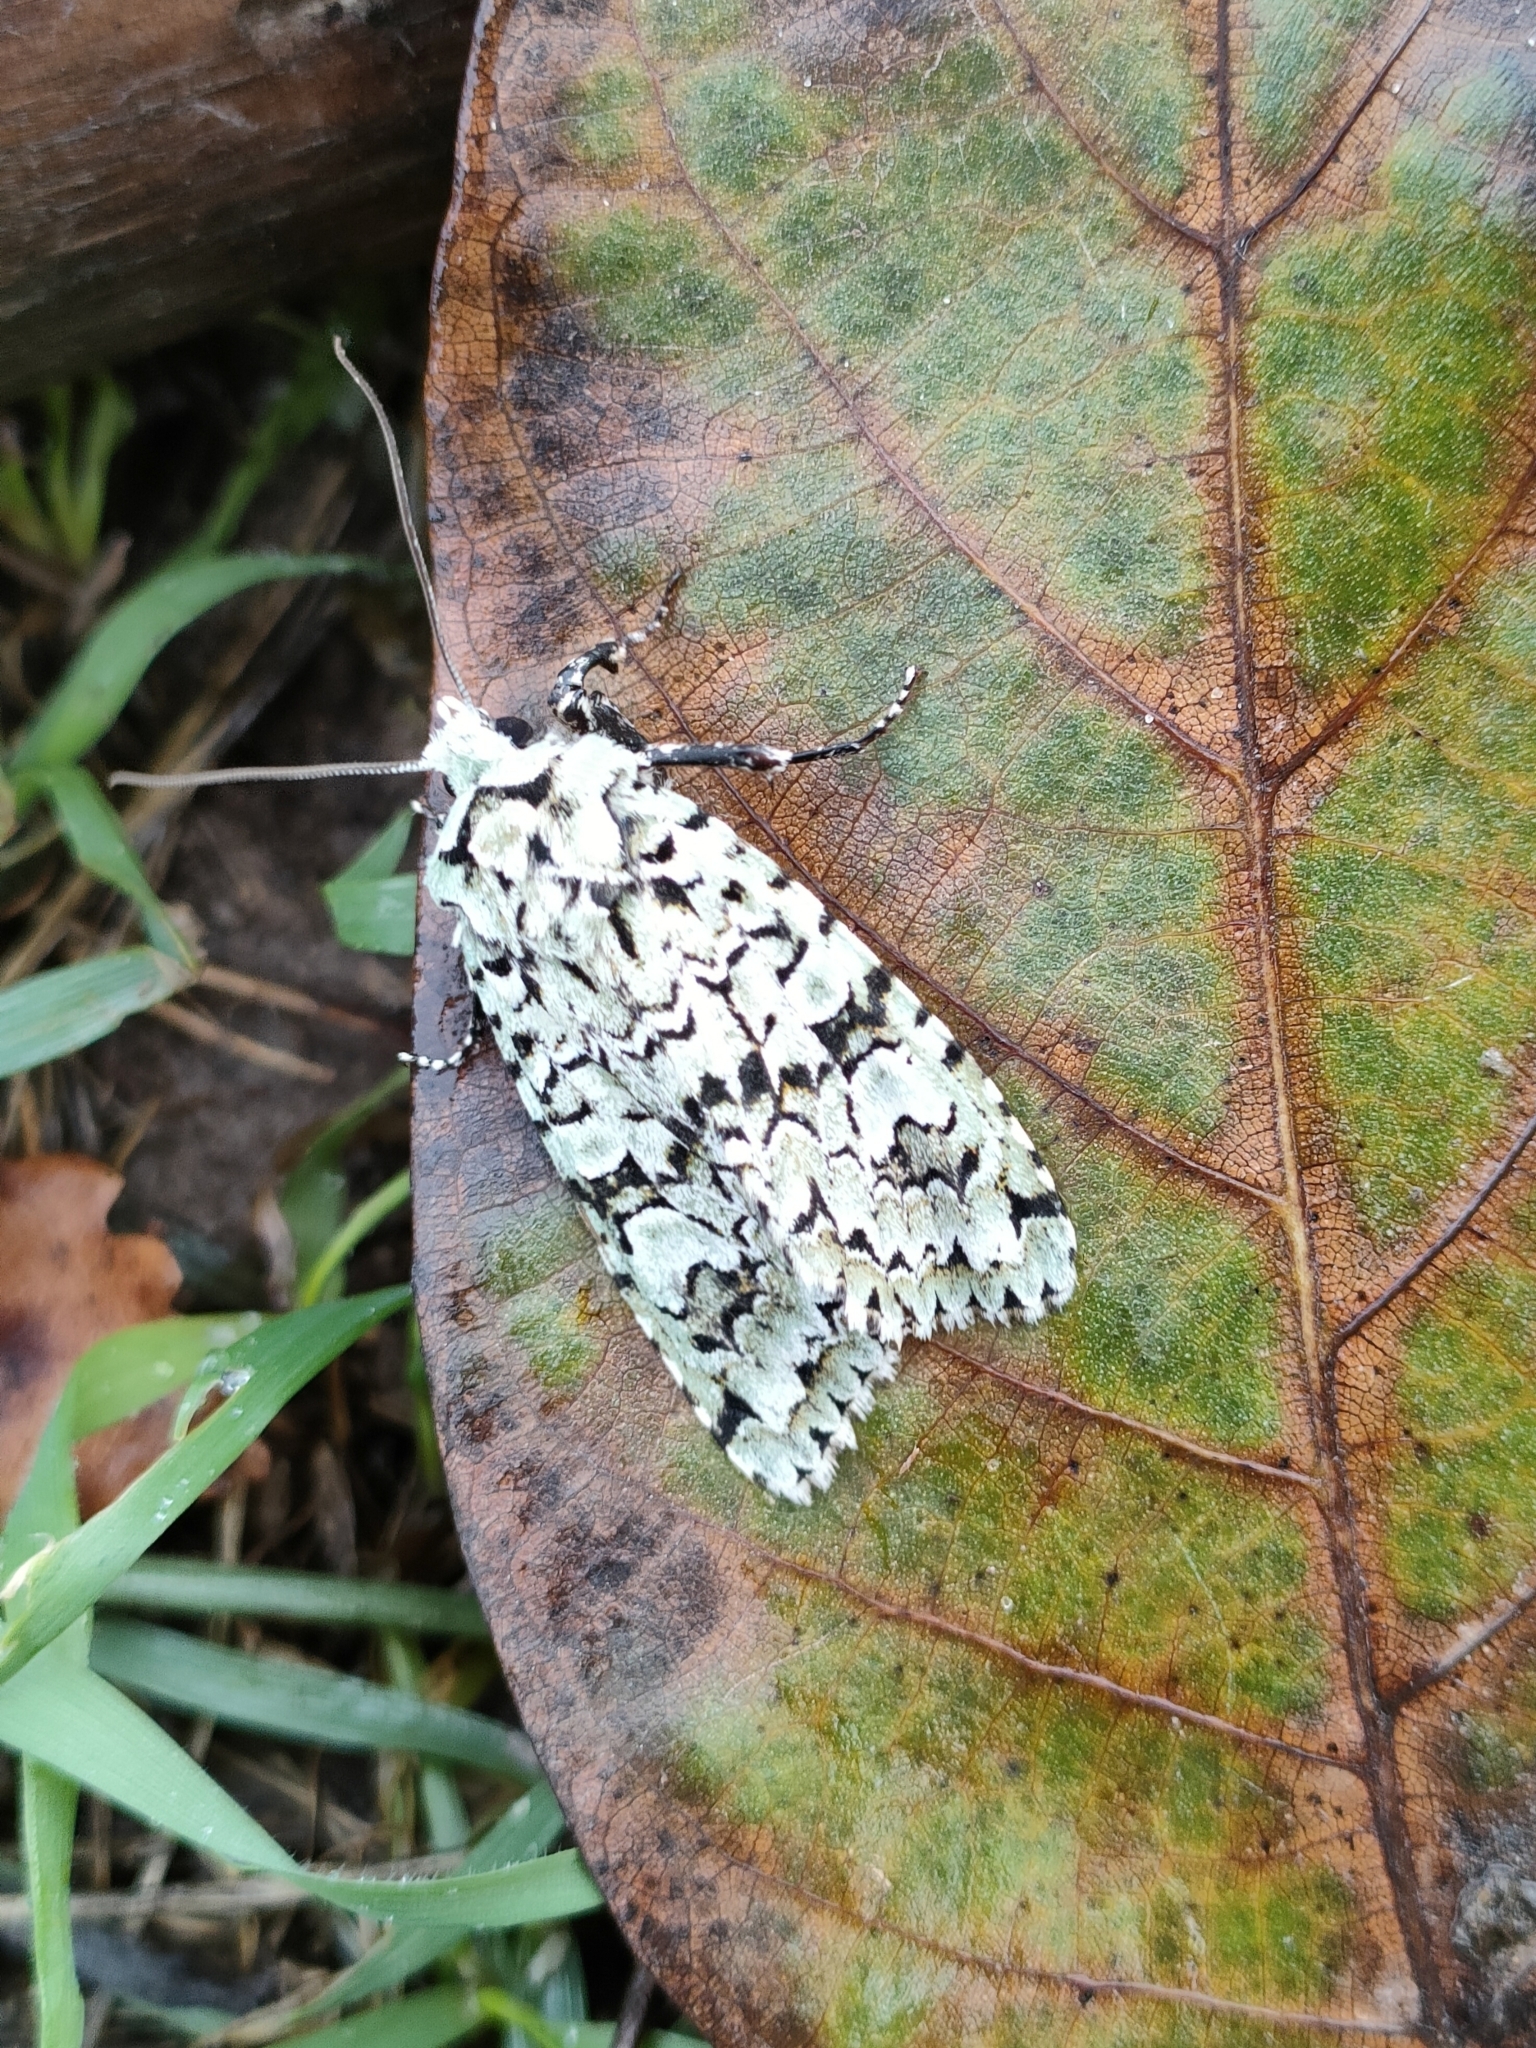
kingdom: Animalia
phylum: Arthropoda
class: Insecta
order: Lepidoptera
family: Noctuidae
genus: Griposia
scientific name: Griposia aprilina
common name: Merveille du jour
